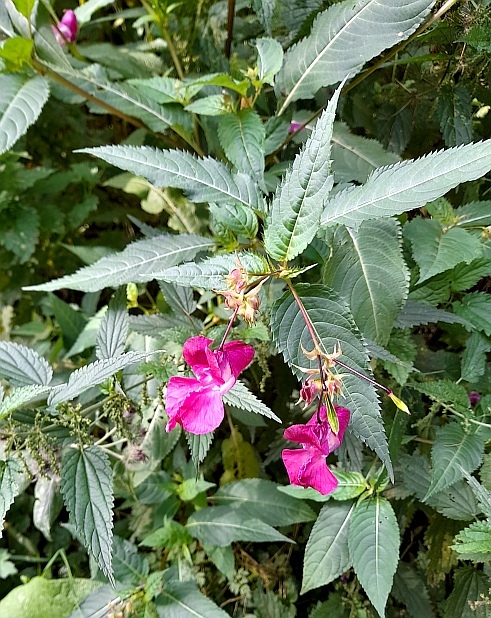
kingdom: Plantae
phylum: Tracheophyta
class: Magnoliopsida
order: Ericales
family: Balsaminaceae
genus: Impatiens
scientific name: Impatiens glandulifera
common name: Himalayan balsam
